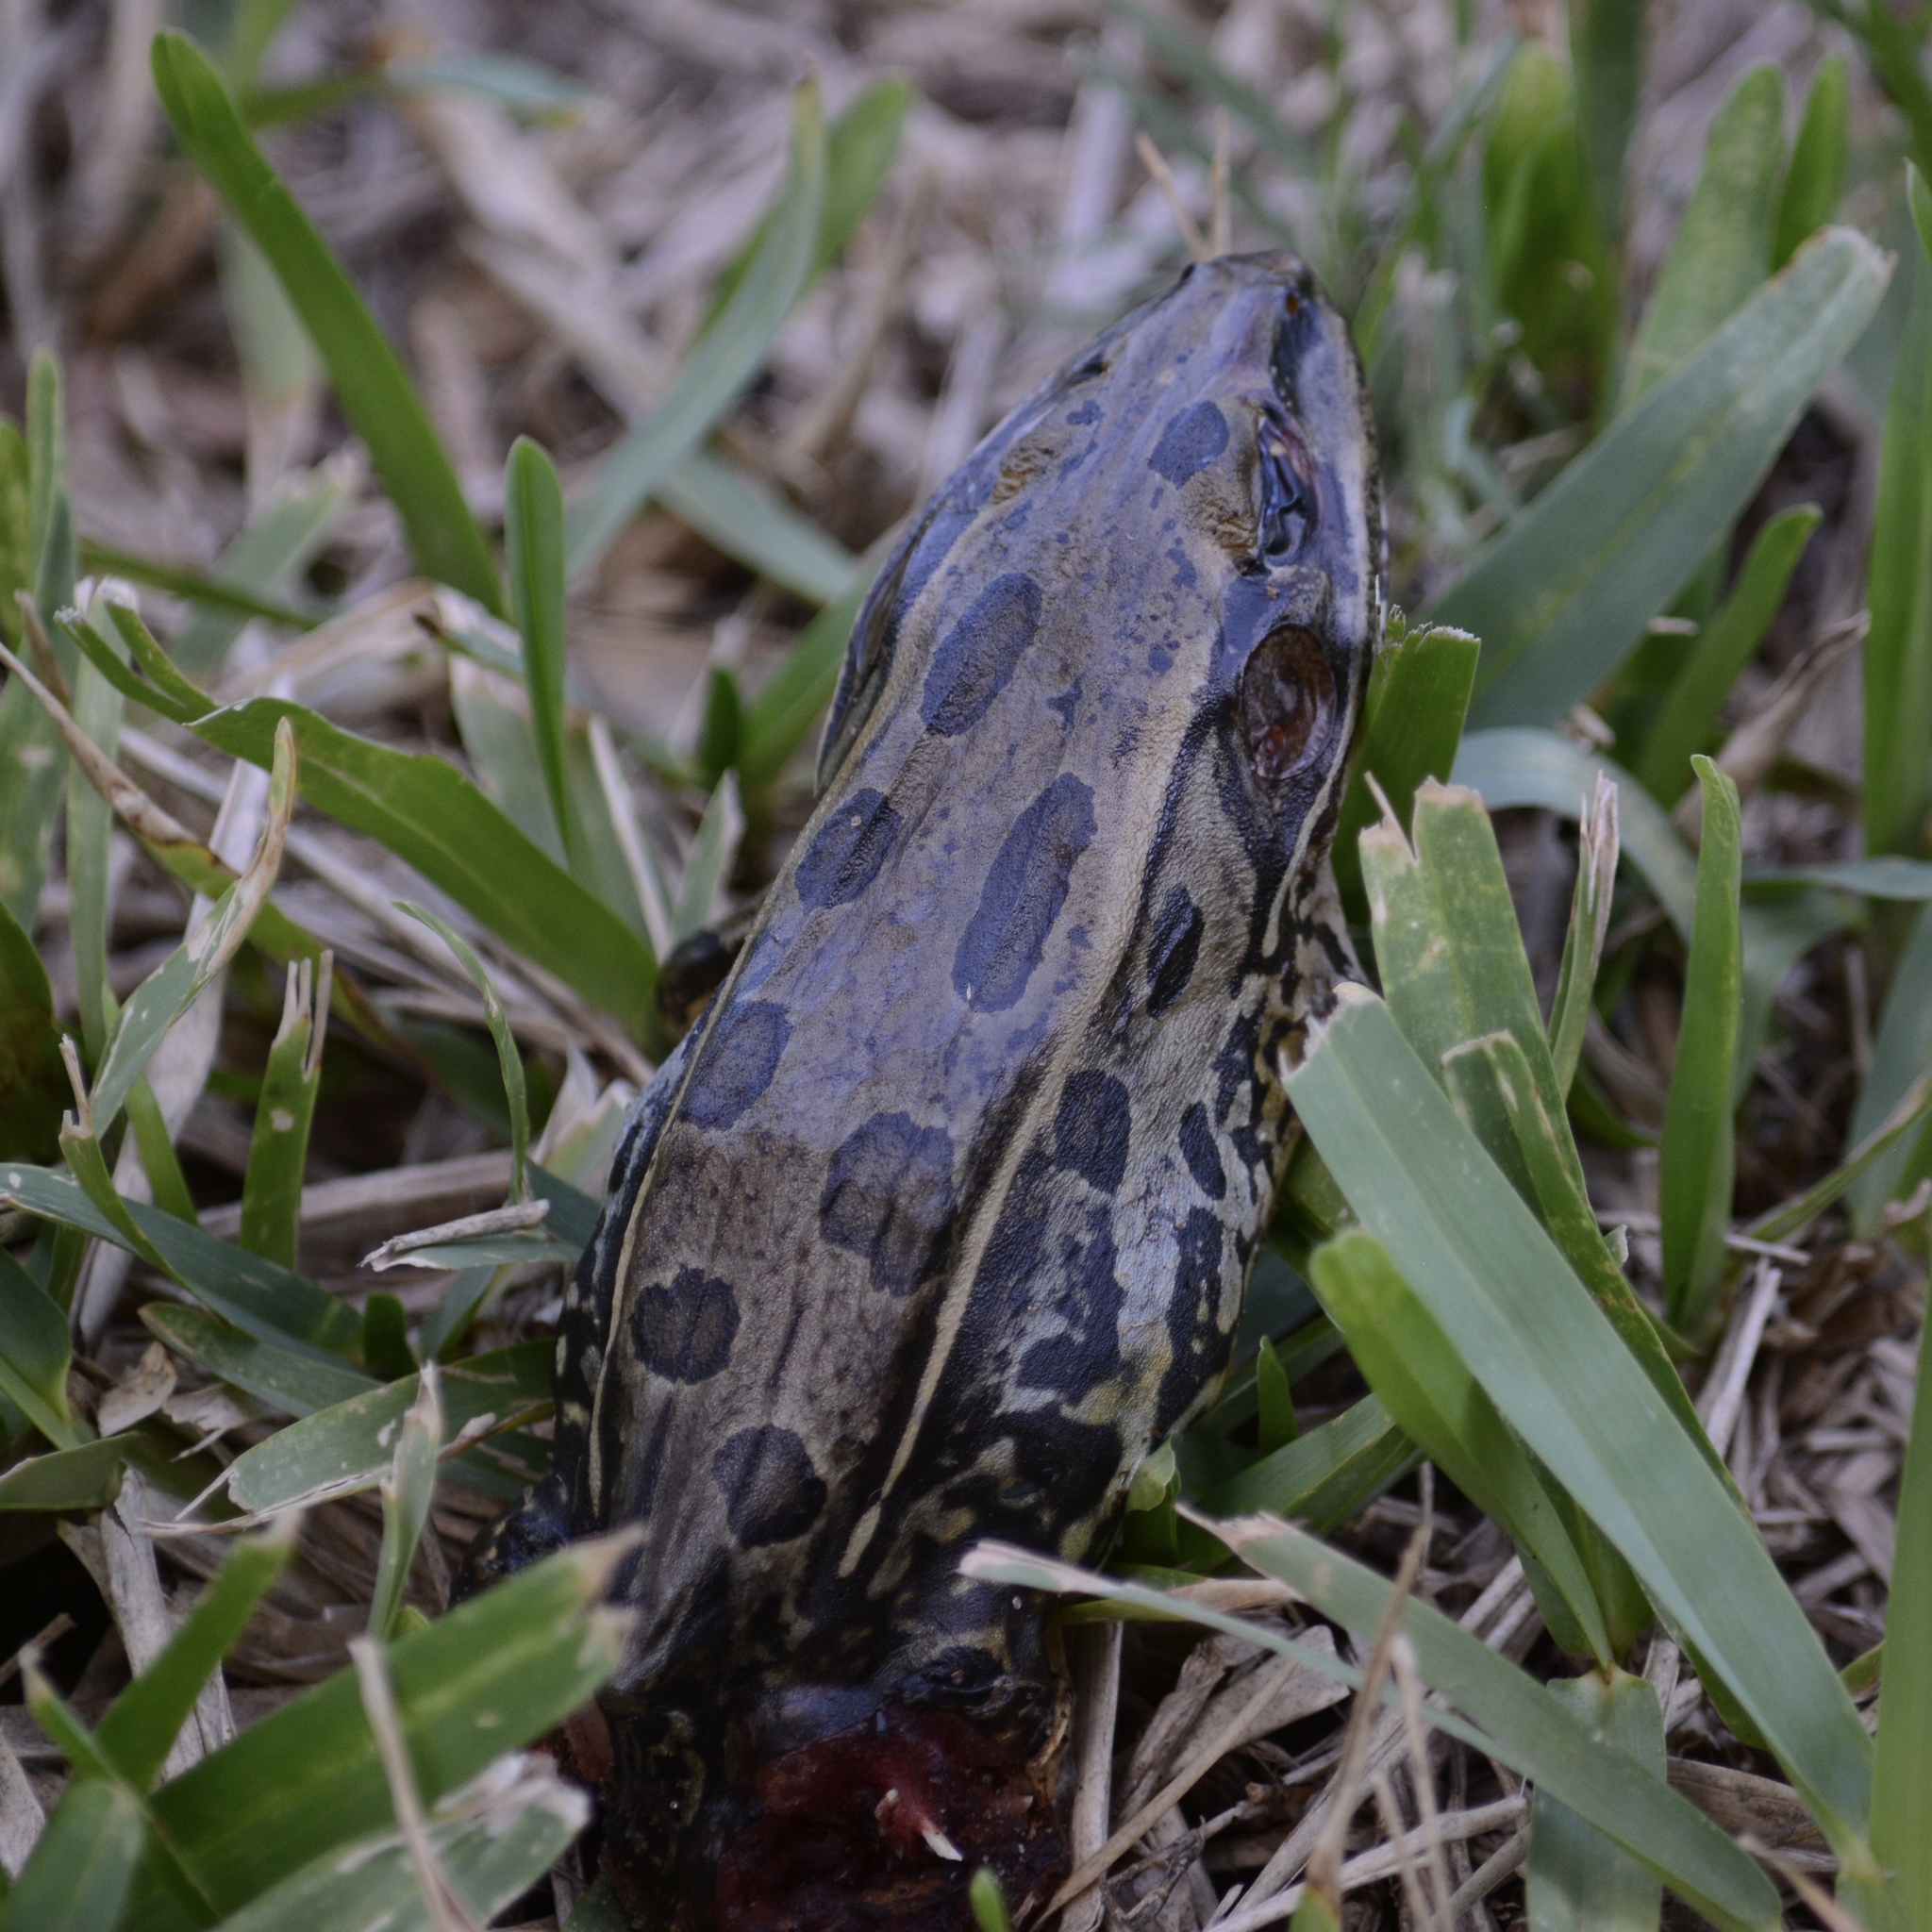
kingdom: Animalia
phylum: Chordata
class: Amphibia
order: Anura
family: Ranidae
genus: Lithobates
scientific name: Lithobates sphenocephalus
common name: Southern leopard frog
